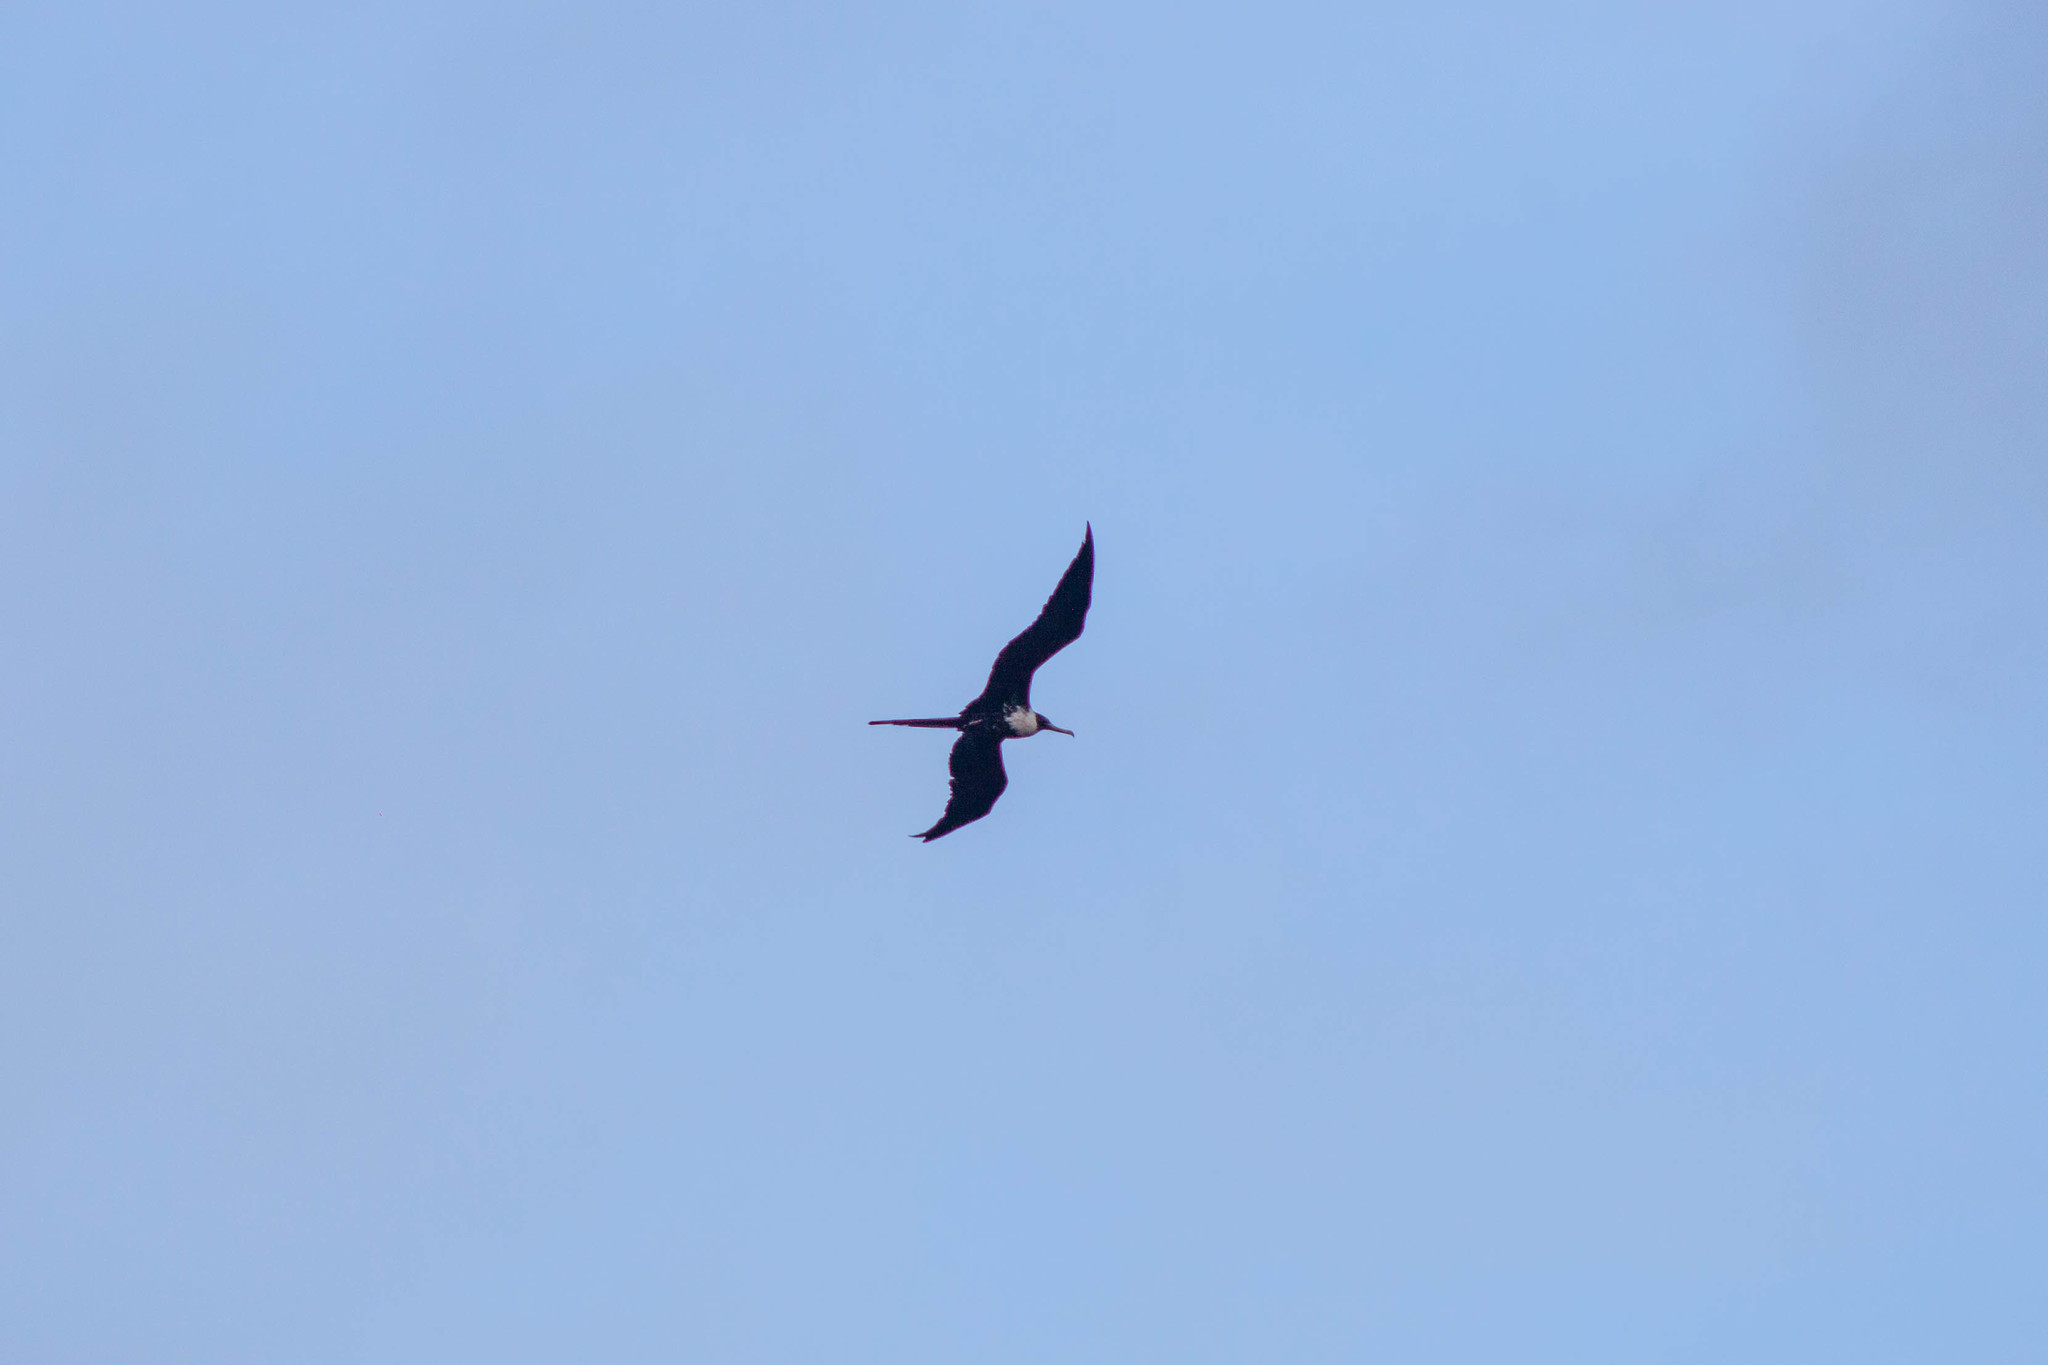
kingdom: Animalia
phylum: Chordata
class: Aves
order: Suliformes
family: Fregatidae
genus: Fregata
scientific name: Fregata magnificens
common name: Magnificent frigatebird
